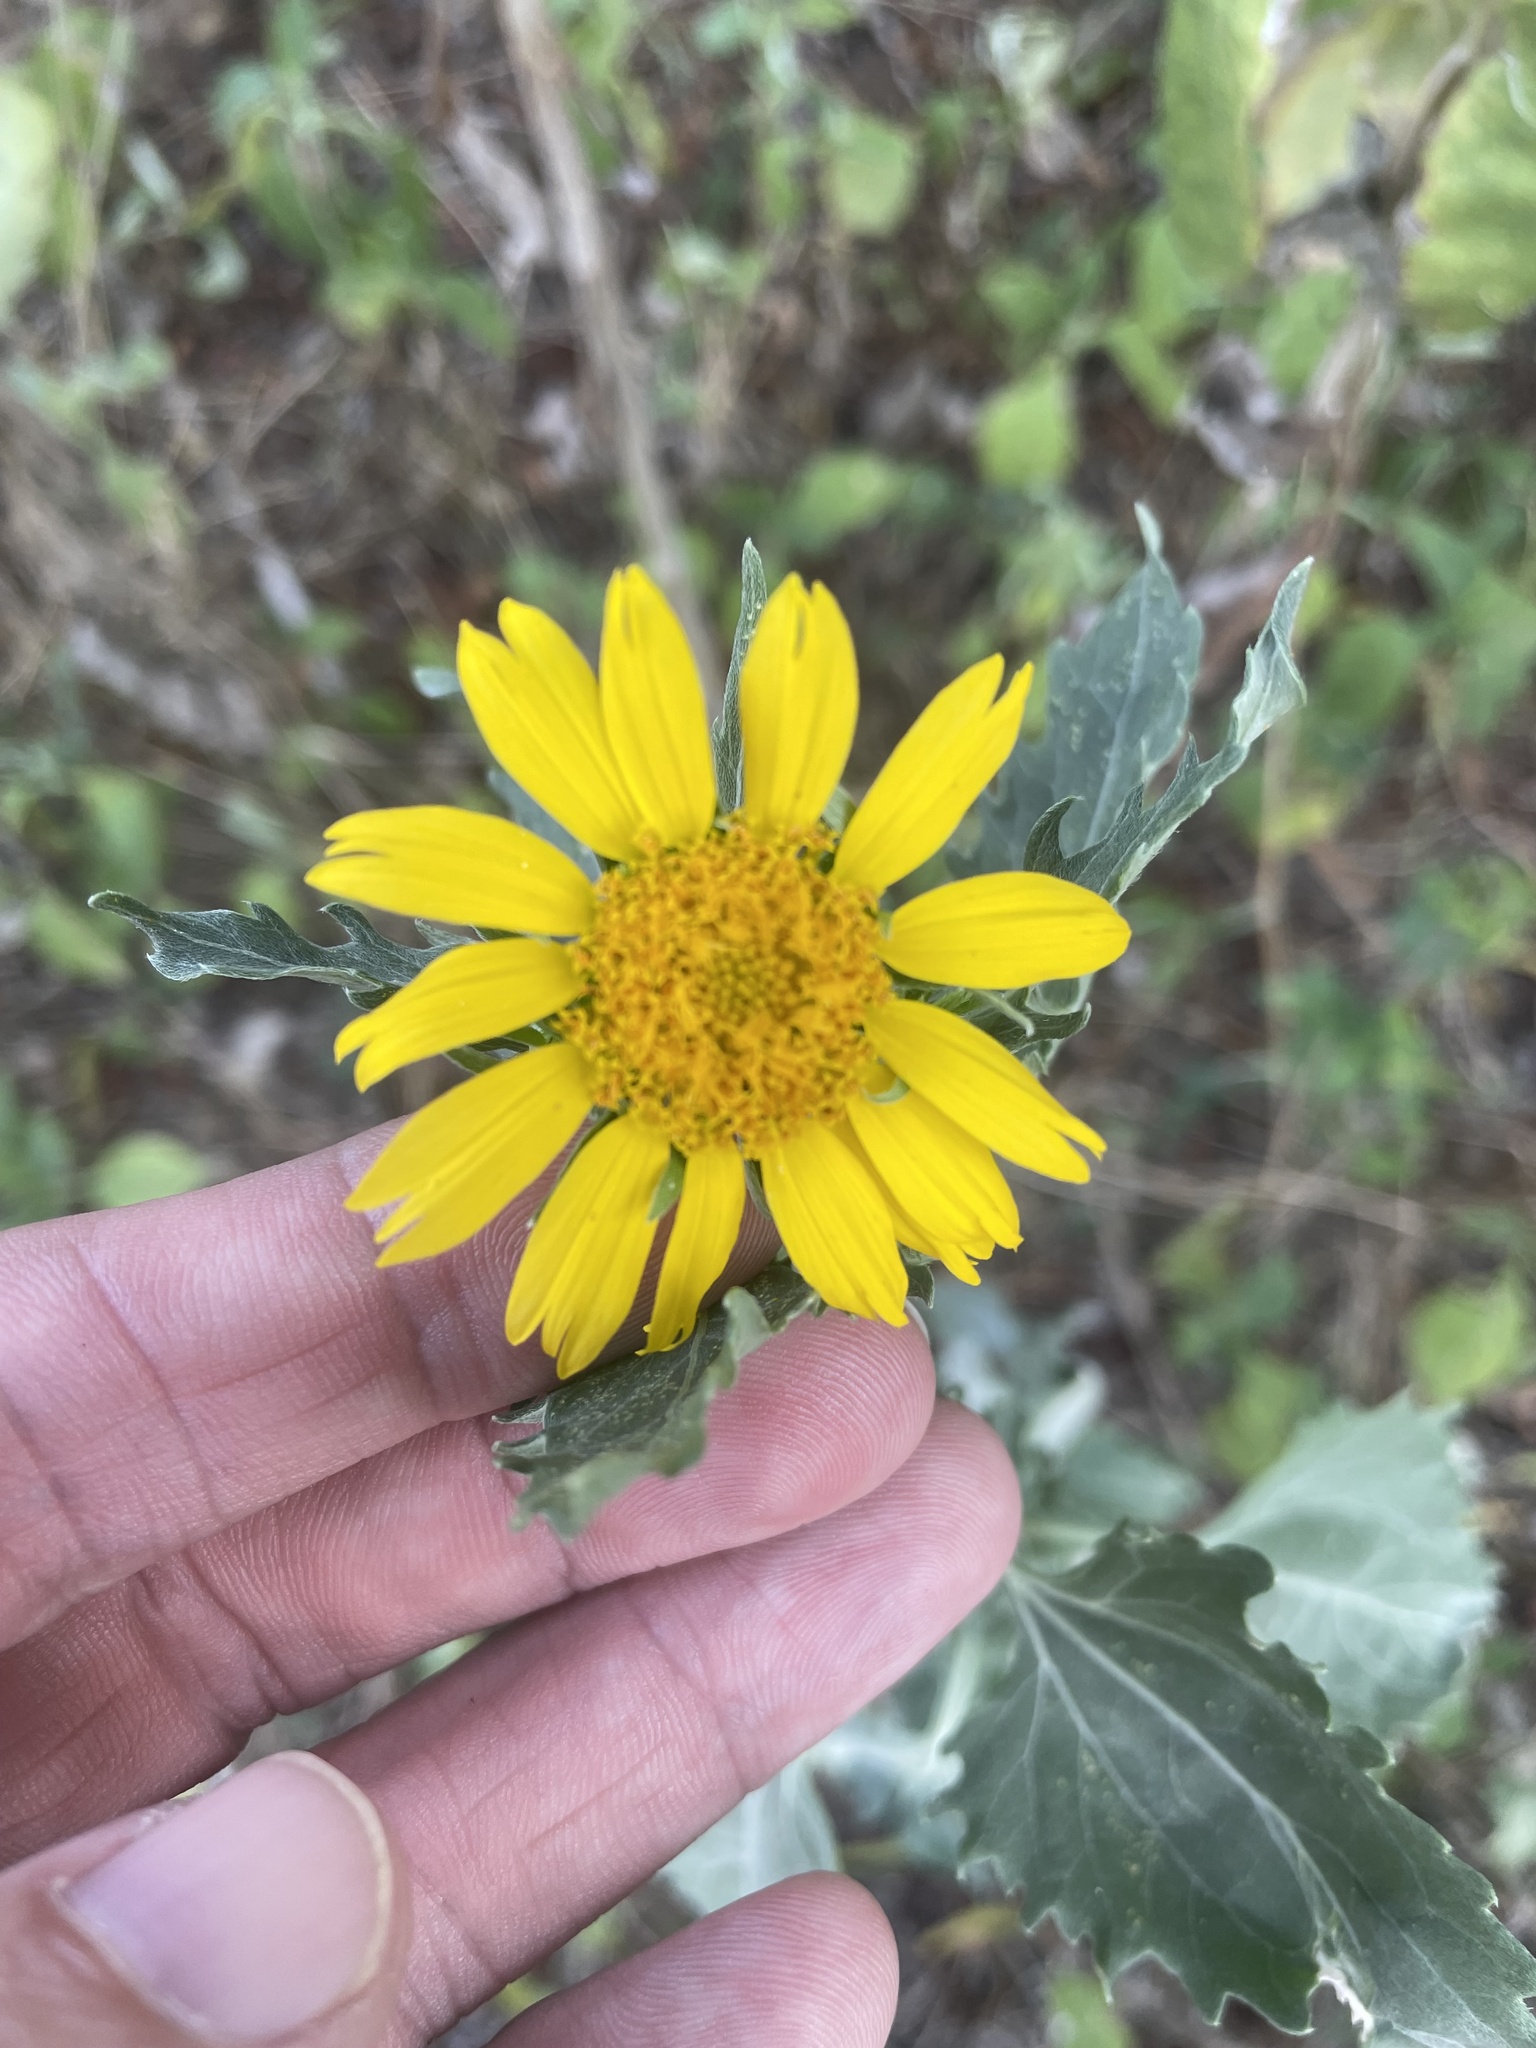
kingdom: Plantae
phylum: Tracheophyta
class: Magnoliopsida
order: Asterales
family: Asteraceae
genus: Verbesina
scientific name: Verbesina encelioides
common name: Golden crownbeard
